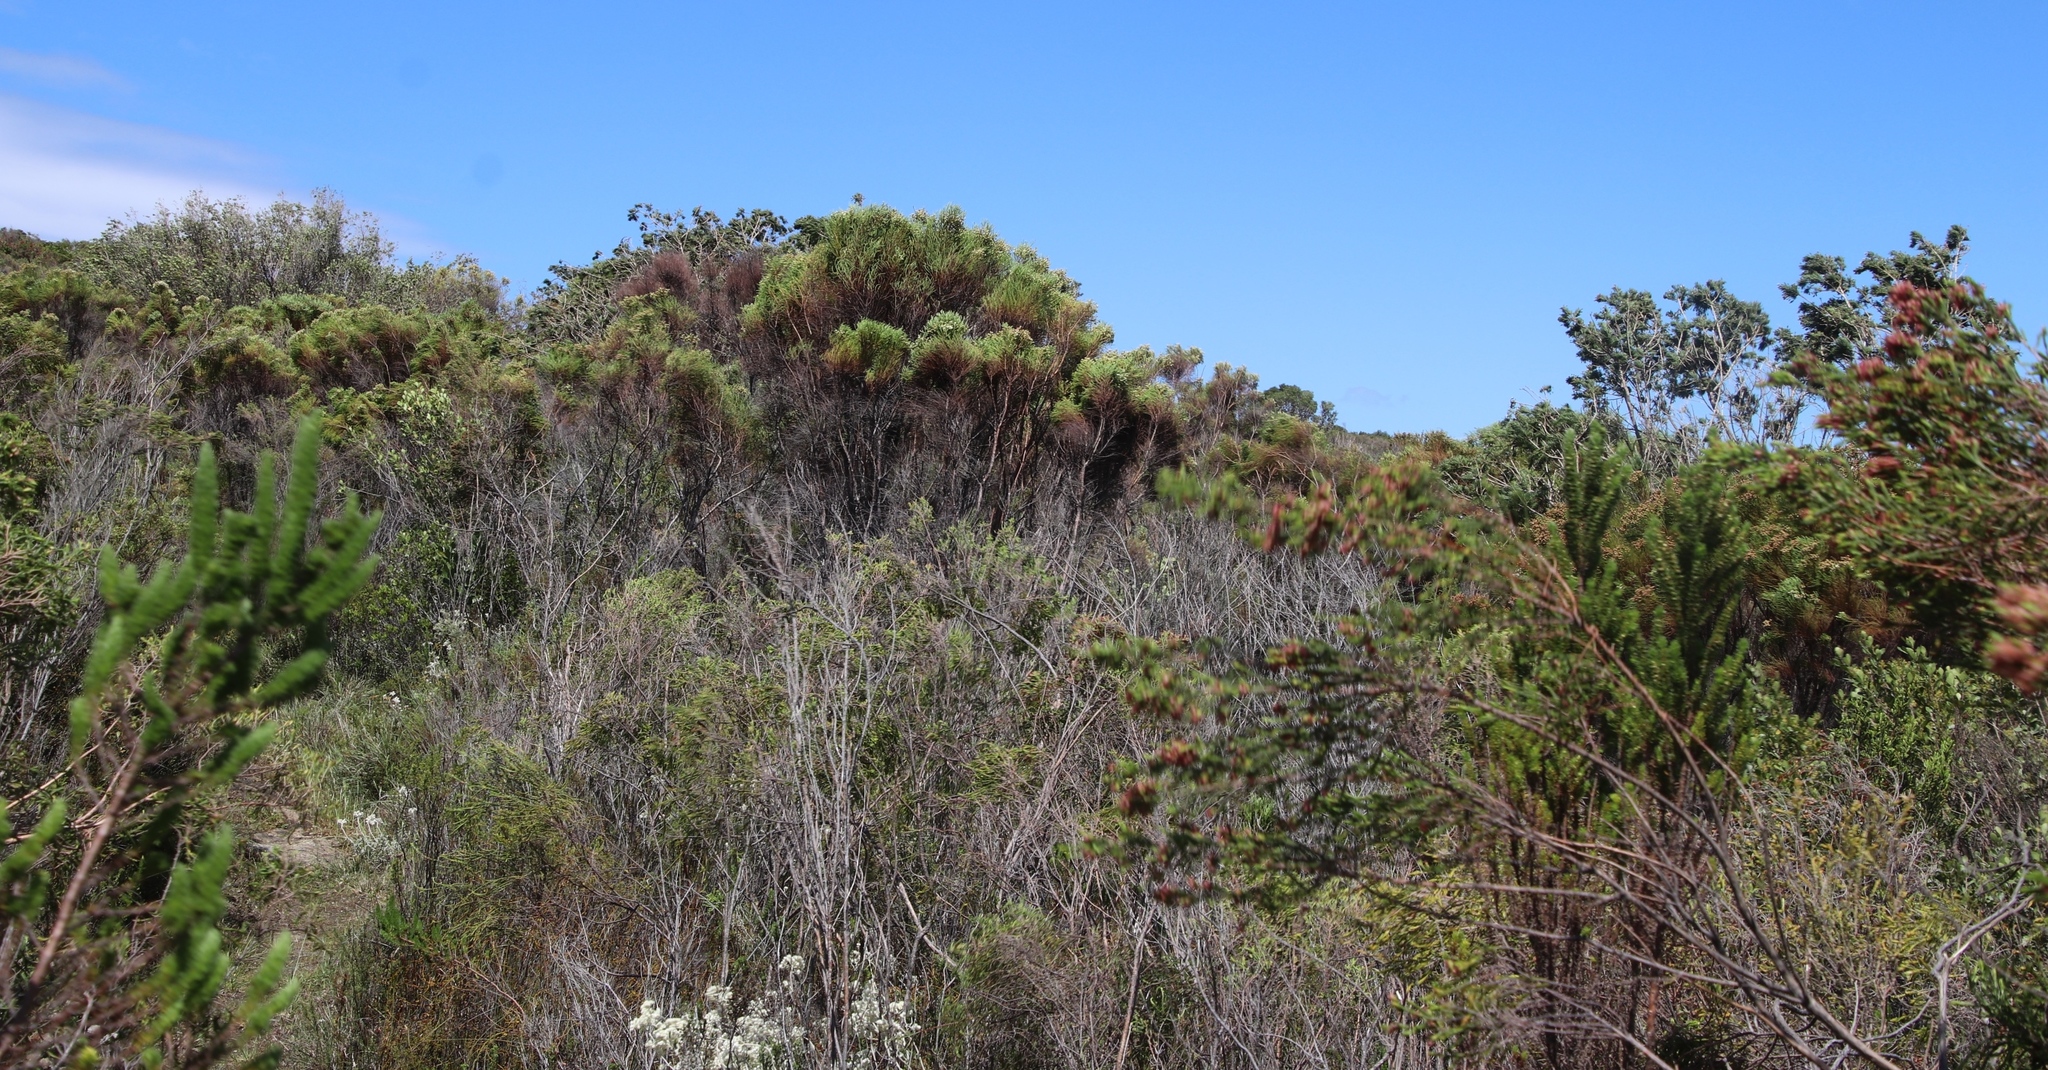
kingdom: Plantae
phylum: Tracheophyta
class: Magnoliopsida
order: Bruniales
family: Bruniaceae
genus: Berzelia
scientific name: Berzelia lanuginosa
